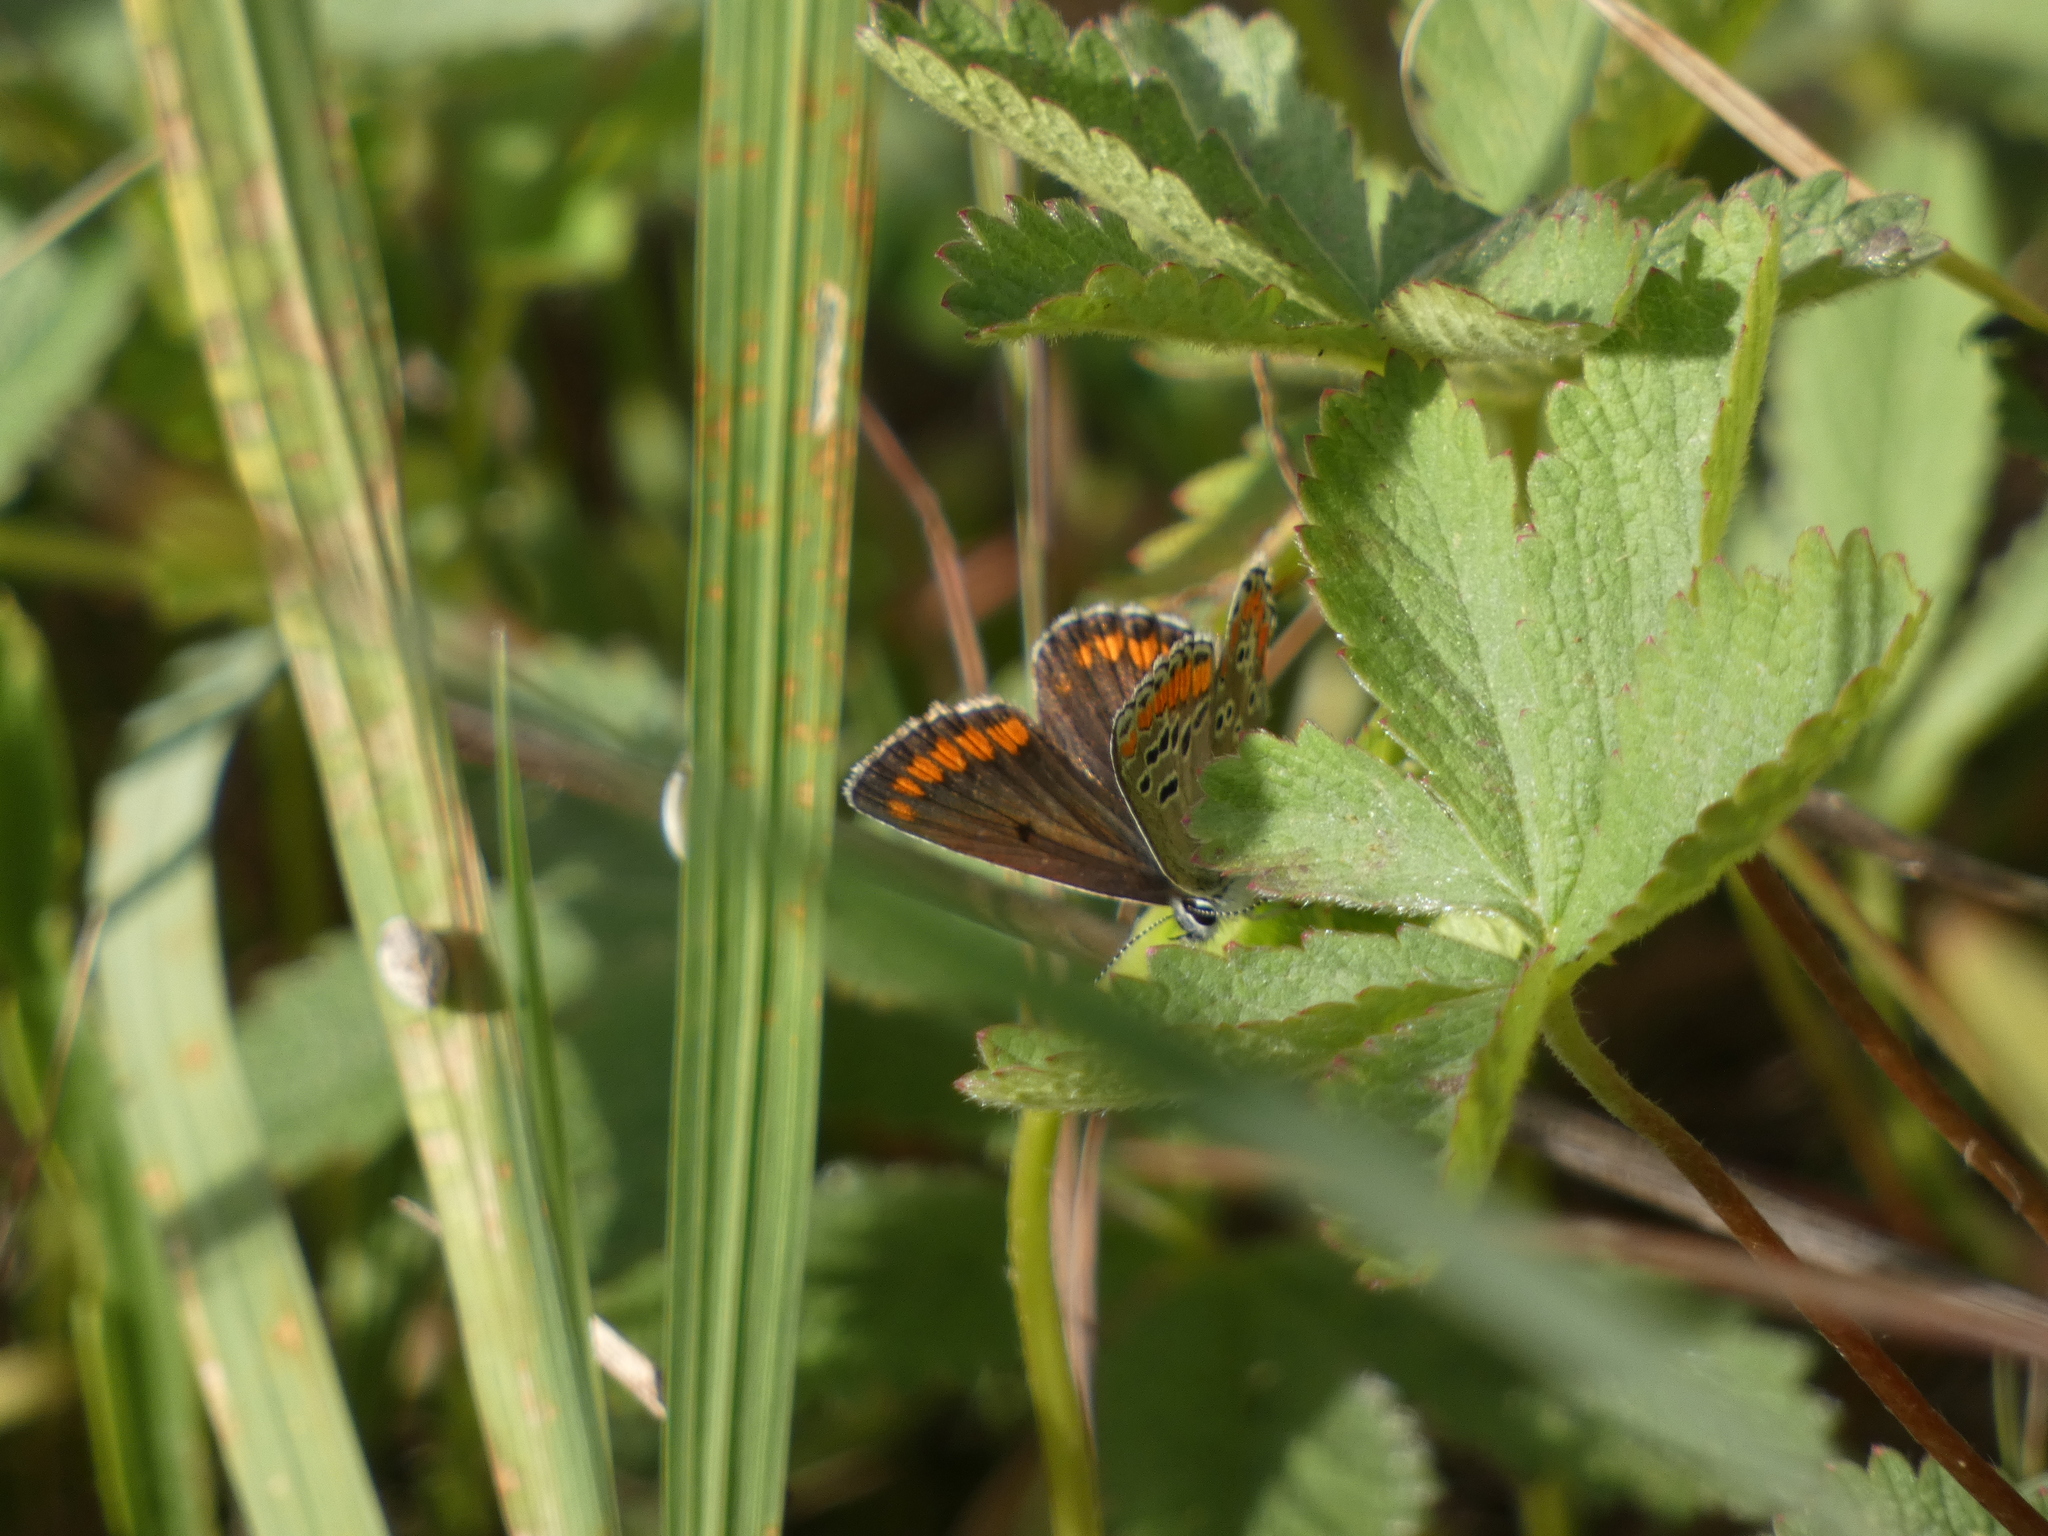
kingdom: Animalia
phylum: Arthropoda
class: Insecta
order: Lepidoptera
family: Lycaenidae
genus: Aricia
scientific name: Aricia agestis
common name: Brown argus
